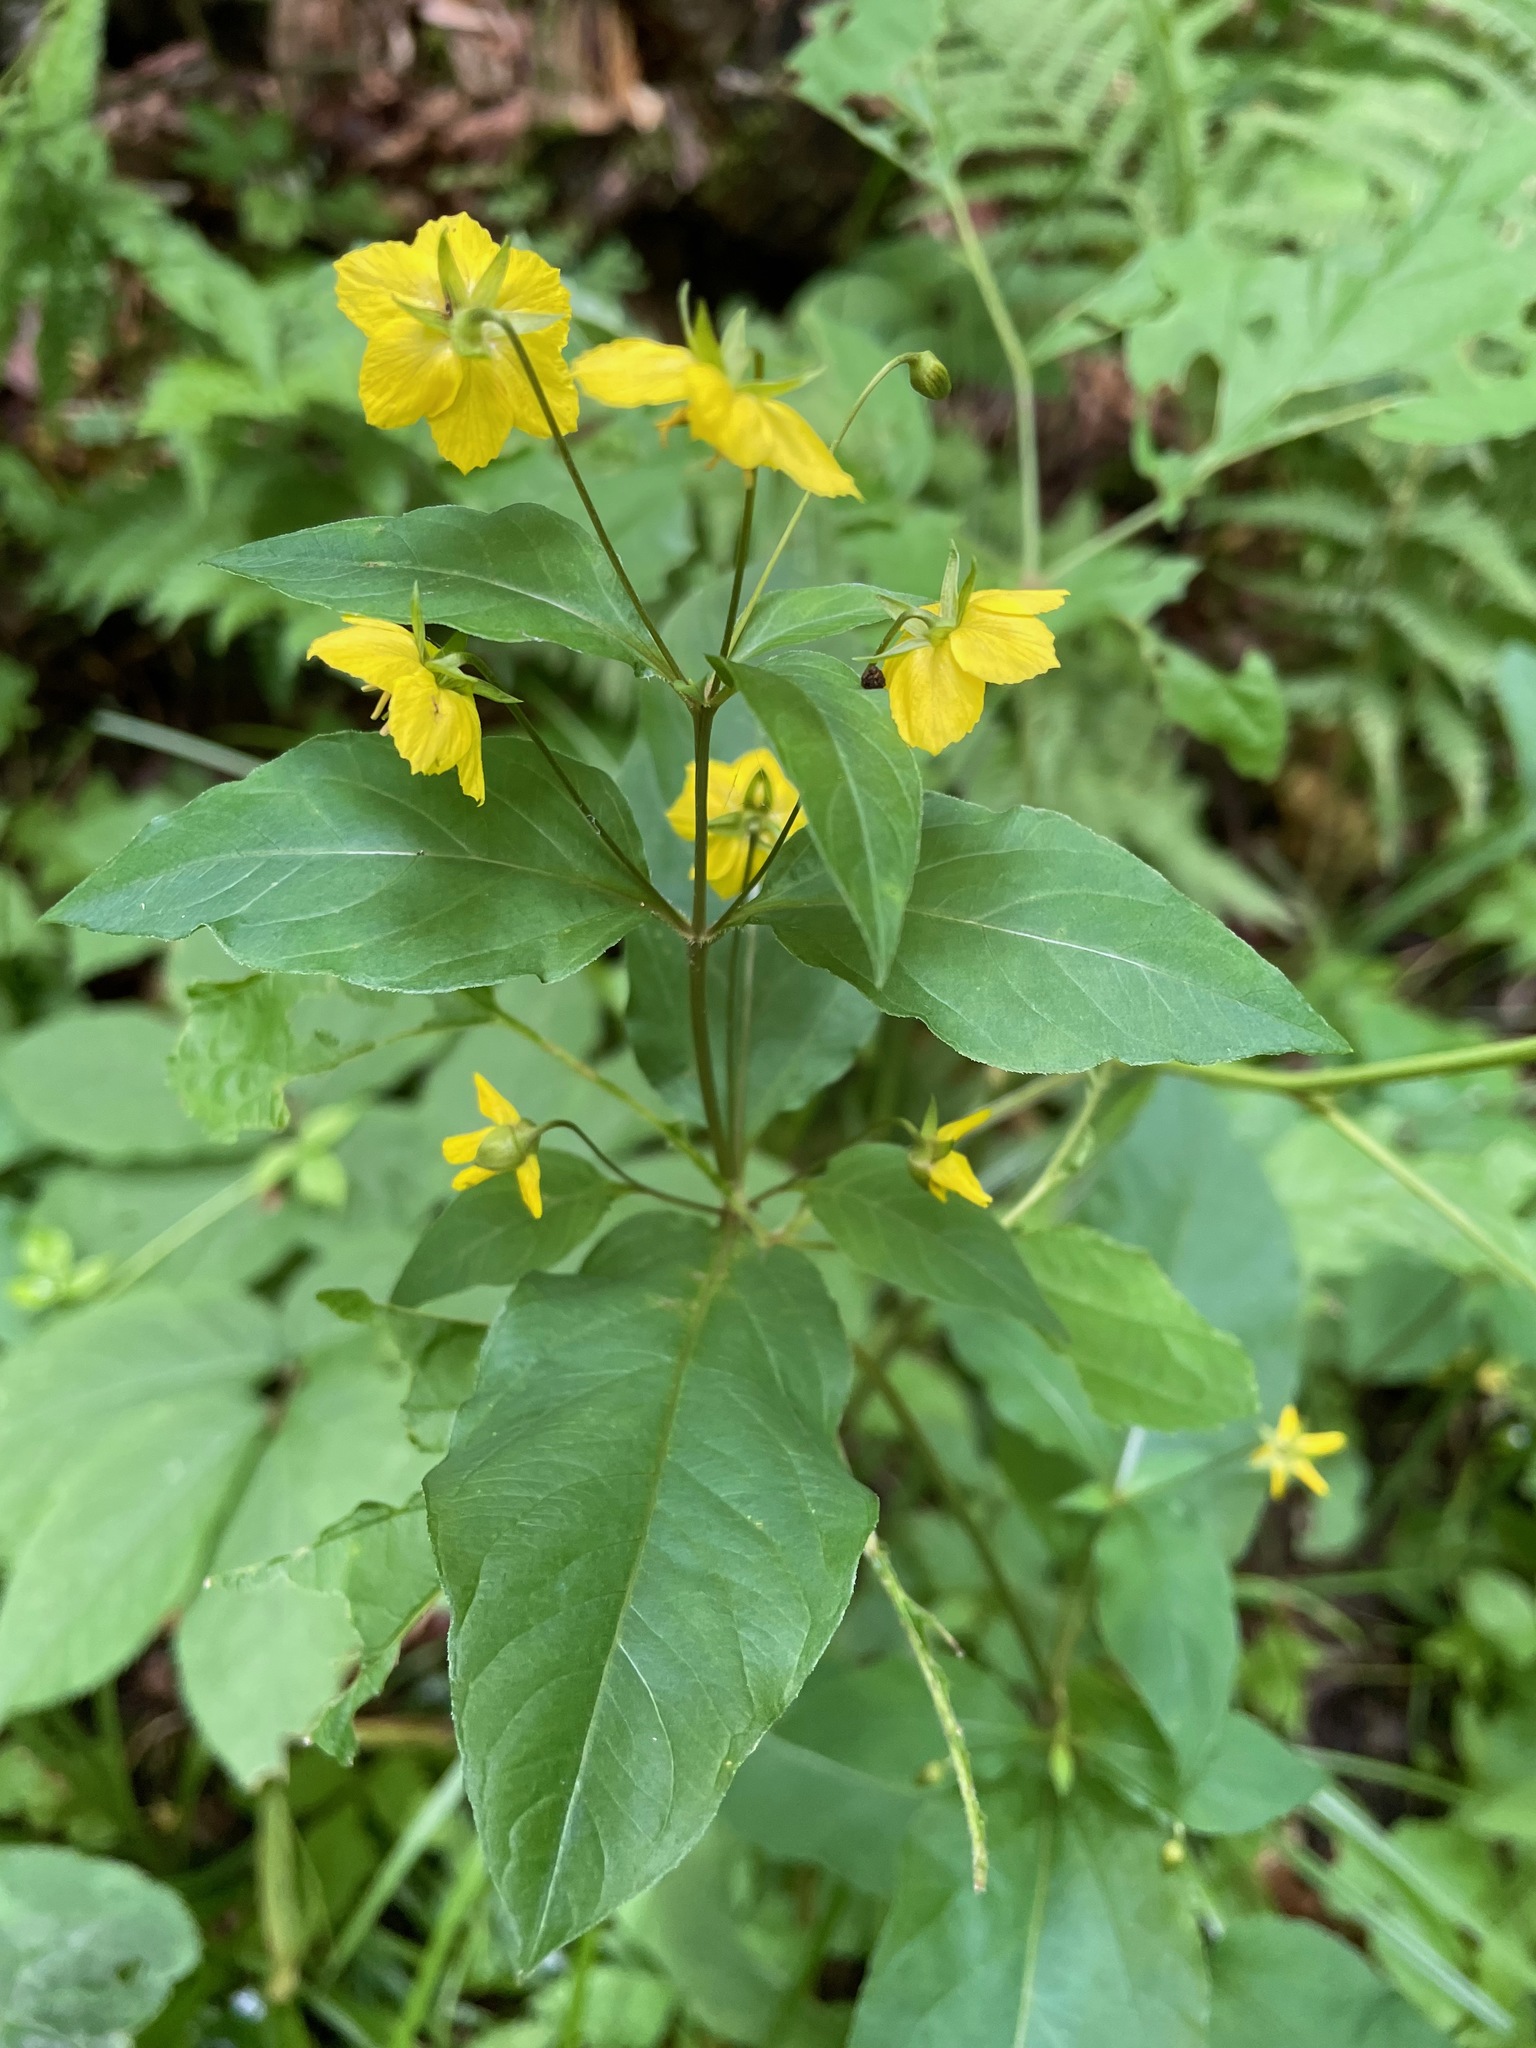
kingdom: Plantae
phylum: Tracheophyta
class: Magnoliopsida
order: Ericales
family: Primulaceae
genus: Lysimachia
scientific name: Lysimachia ciliata
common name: Fringed loosestrife
